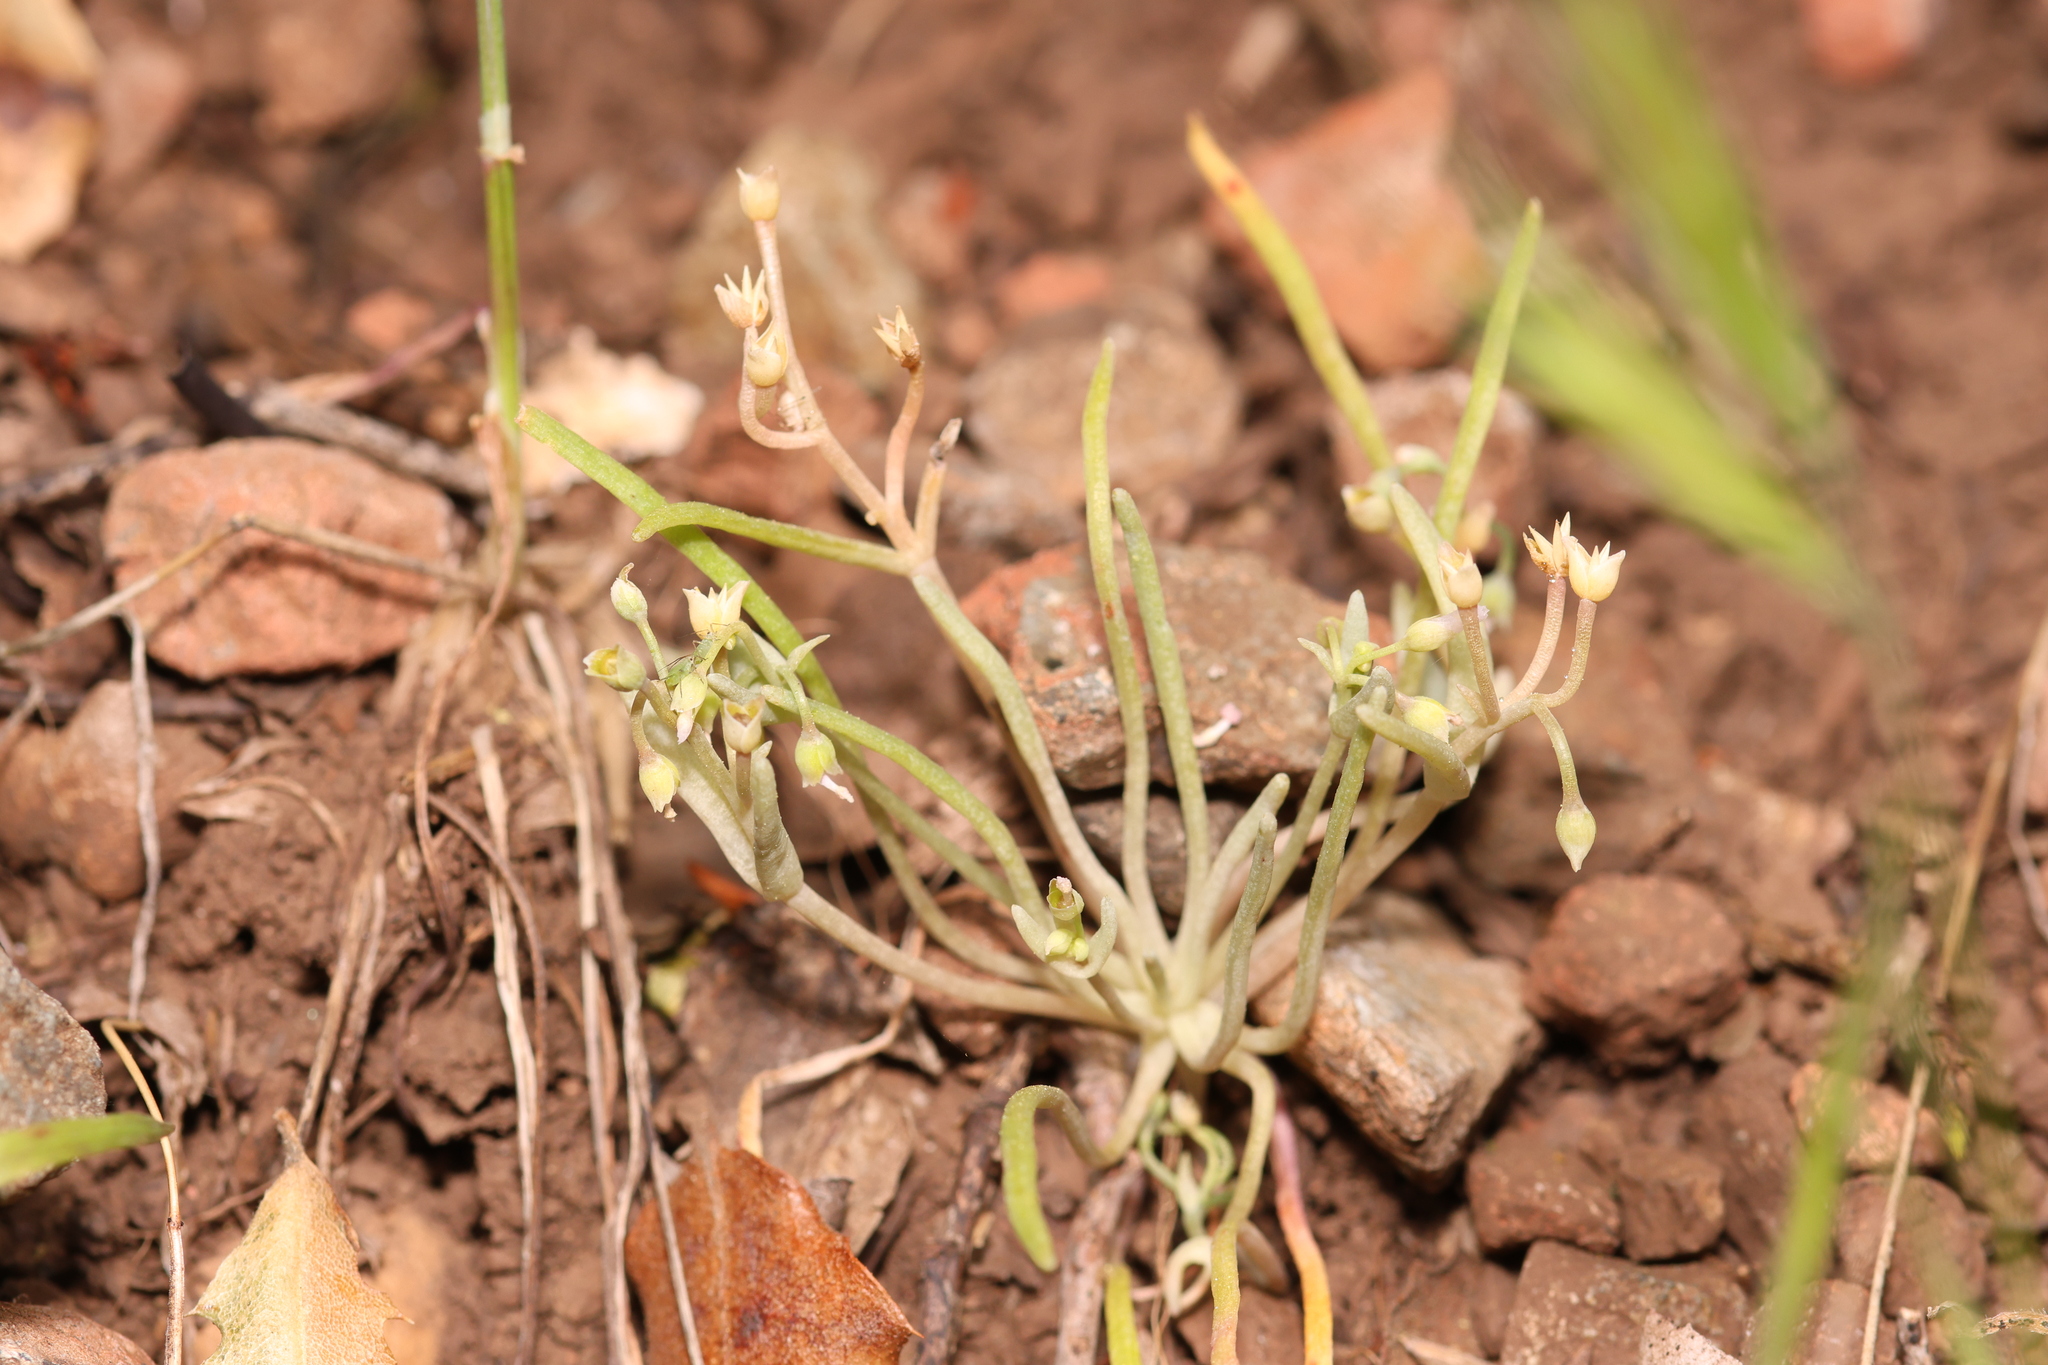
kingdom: Plantae
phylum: Tracheophyta
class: Magnoliopsida
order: Caryophyllales
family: Montiaceae
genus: Claytonia
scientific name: Claytonia exigua
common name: Pale spring beauty
